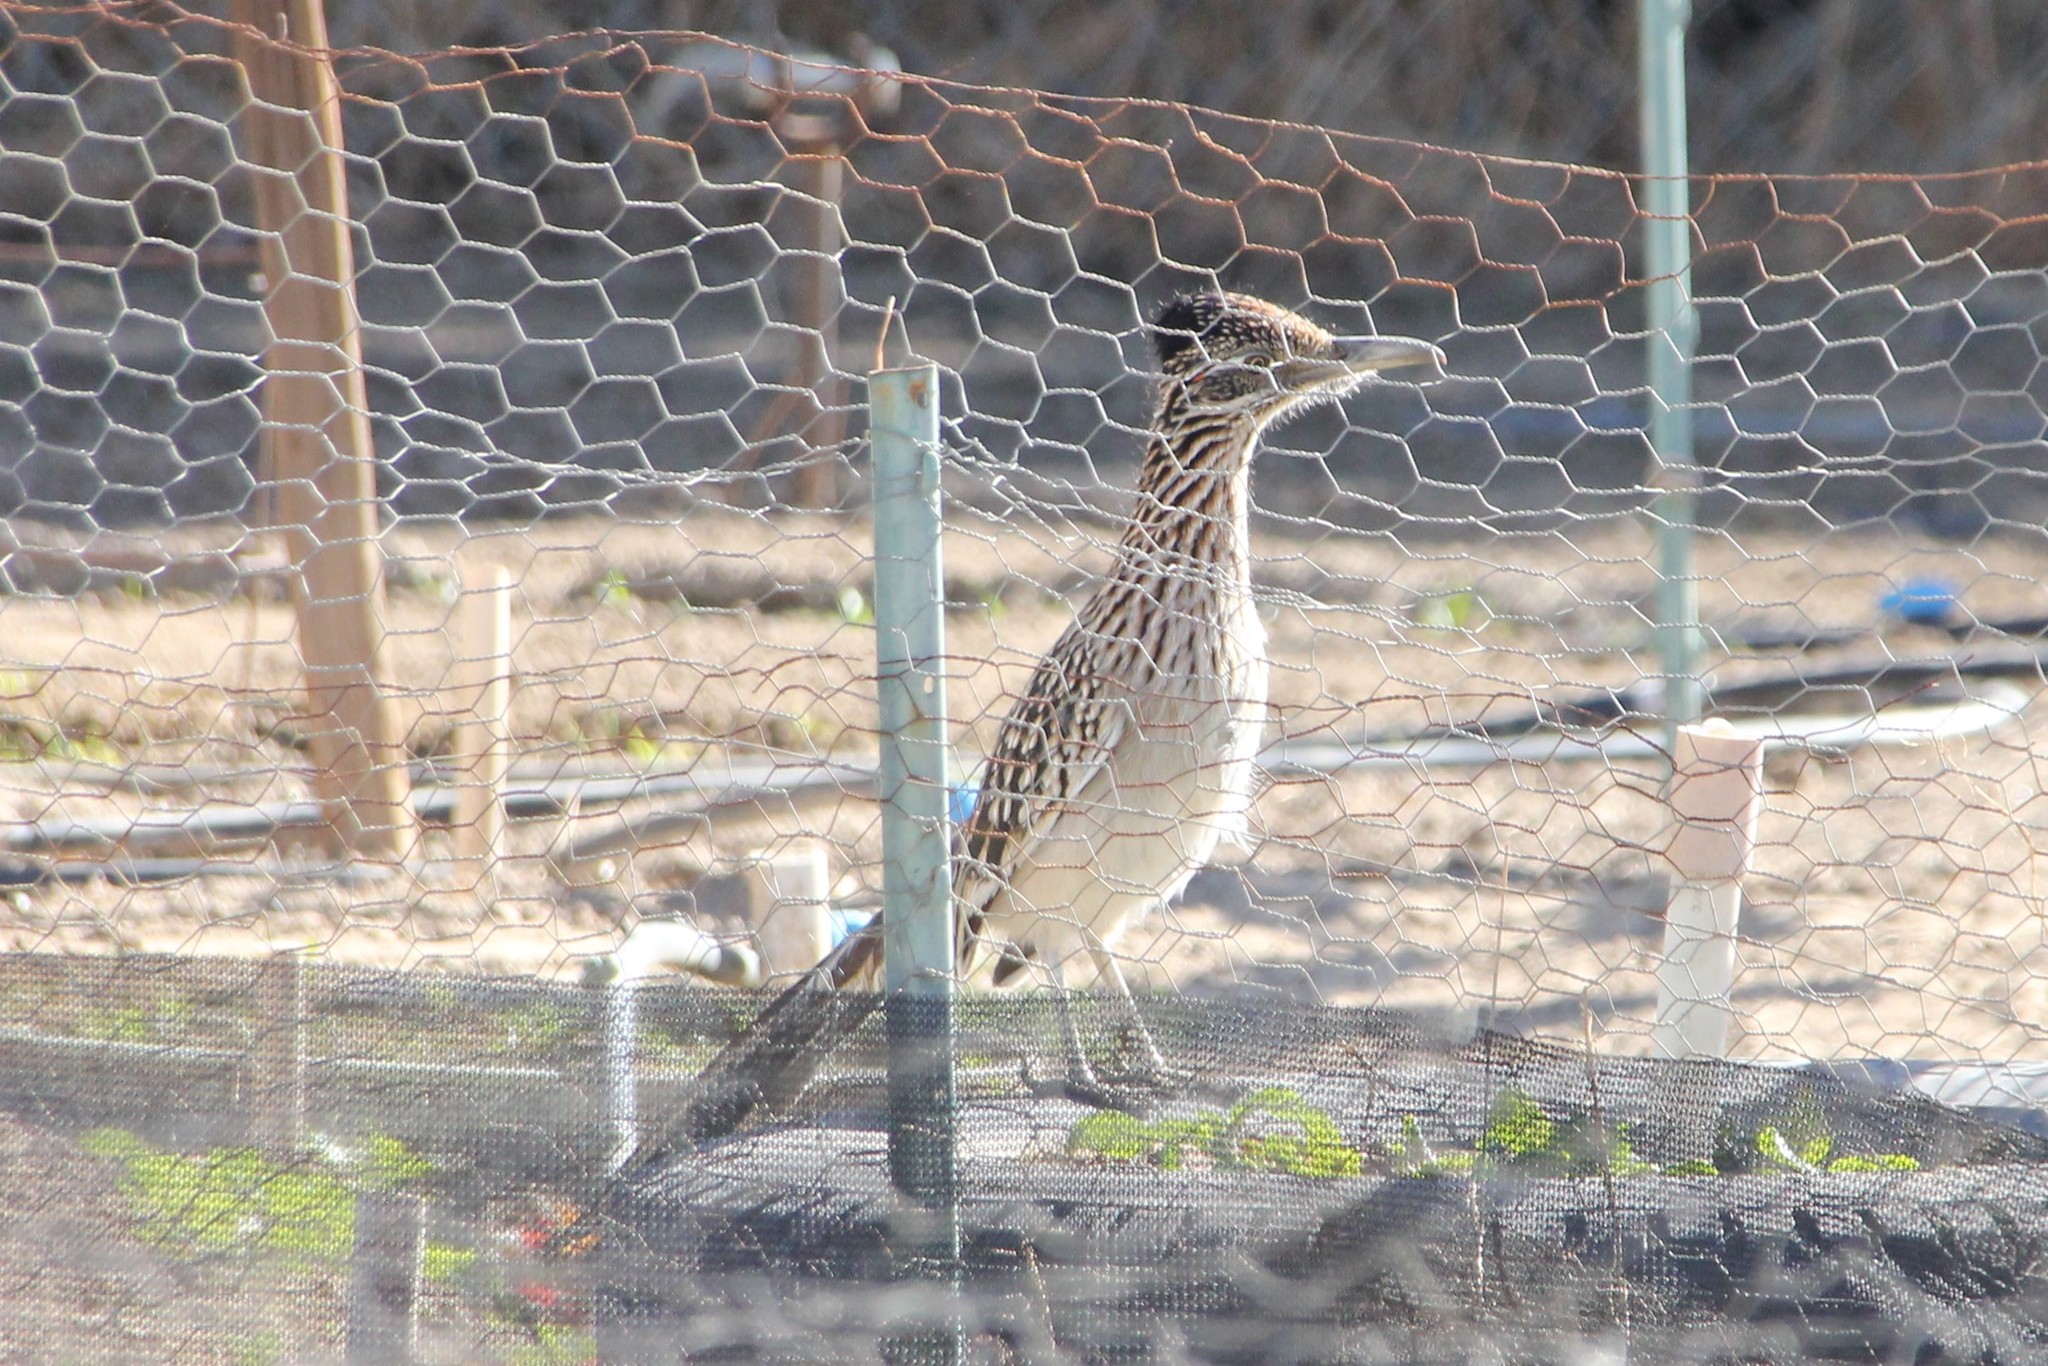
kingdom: Animalia
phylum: Chordata
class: Aves
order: Cuculiformes
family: Cuculidae
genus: Geococcyx
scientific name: Geococcyx californianus
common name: Greater roadrunner
